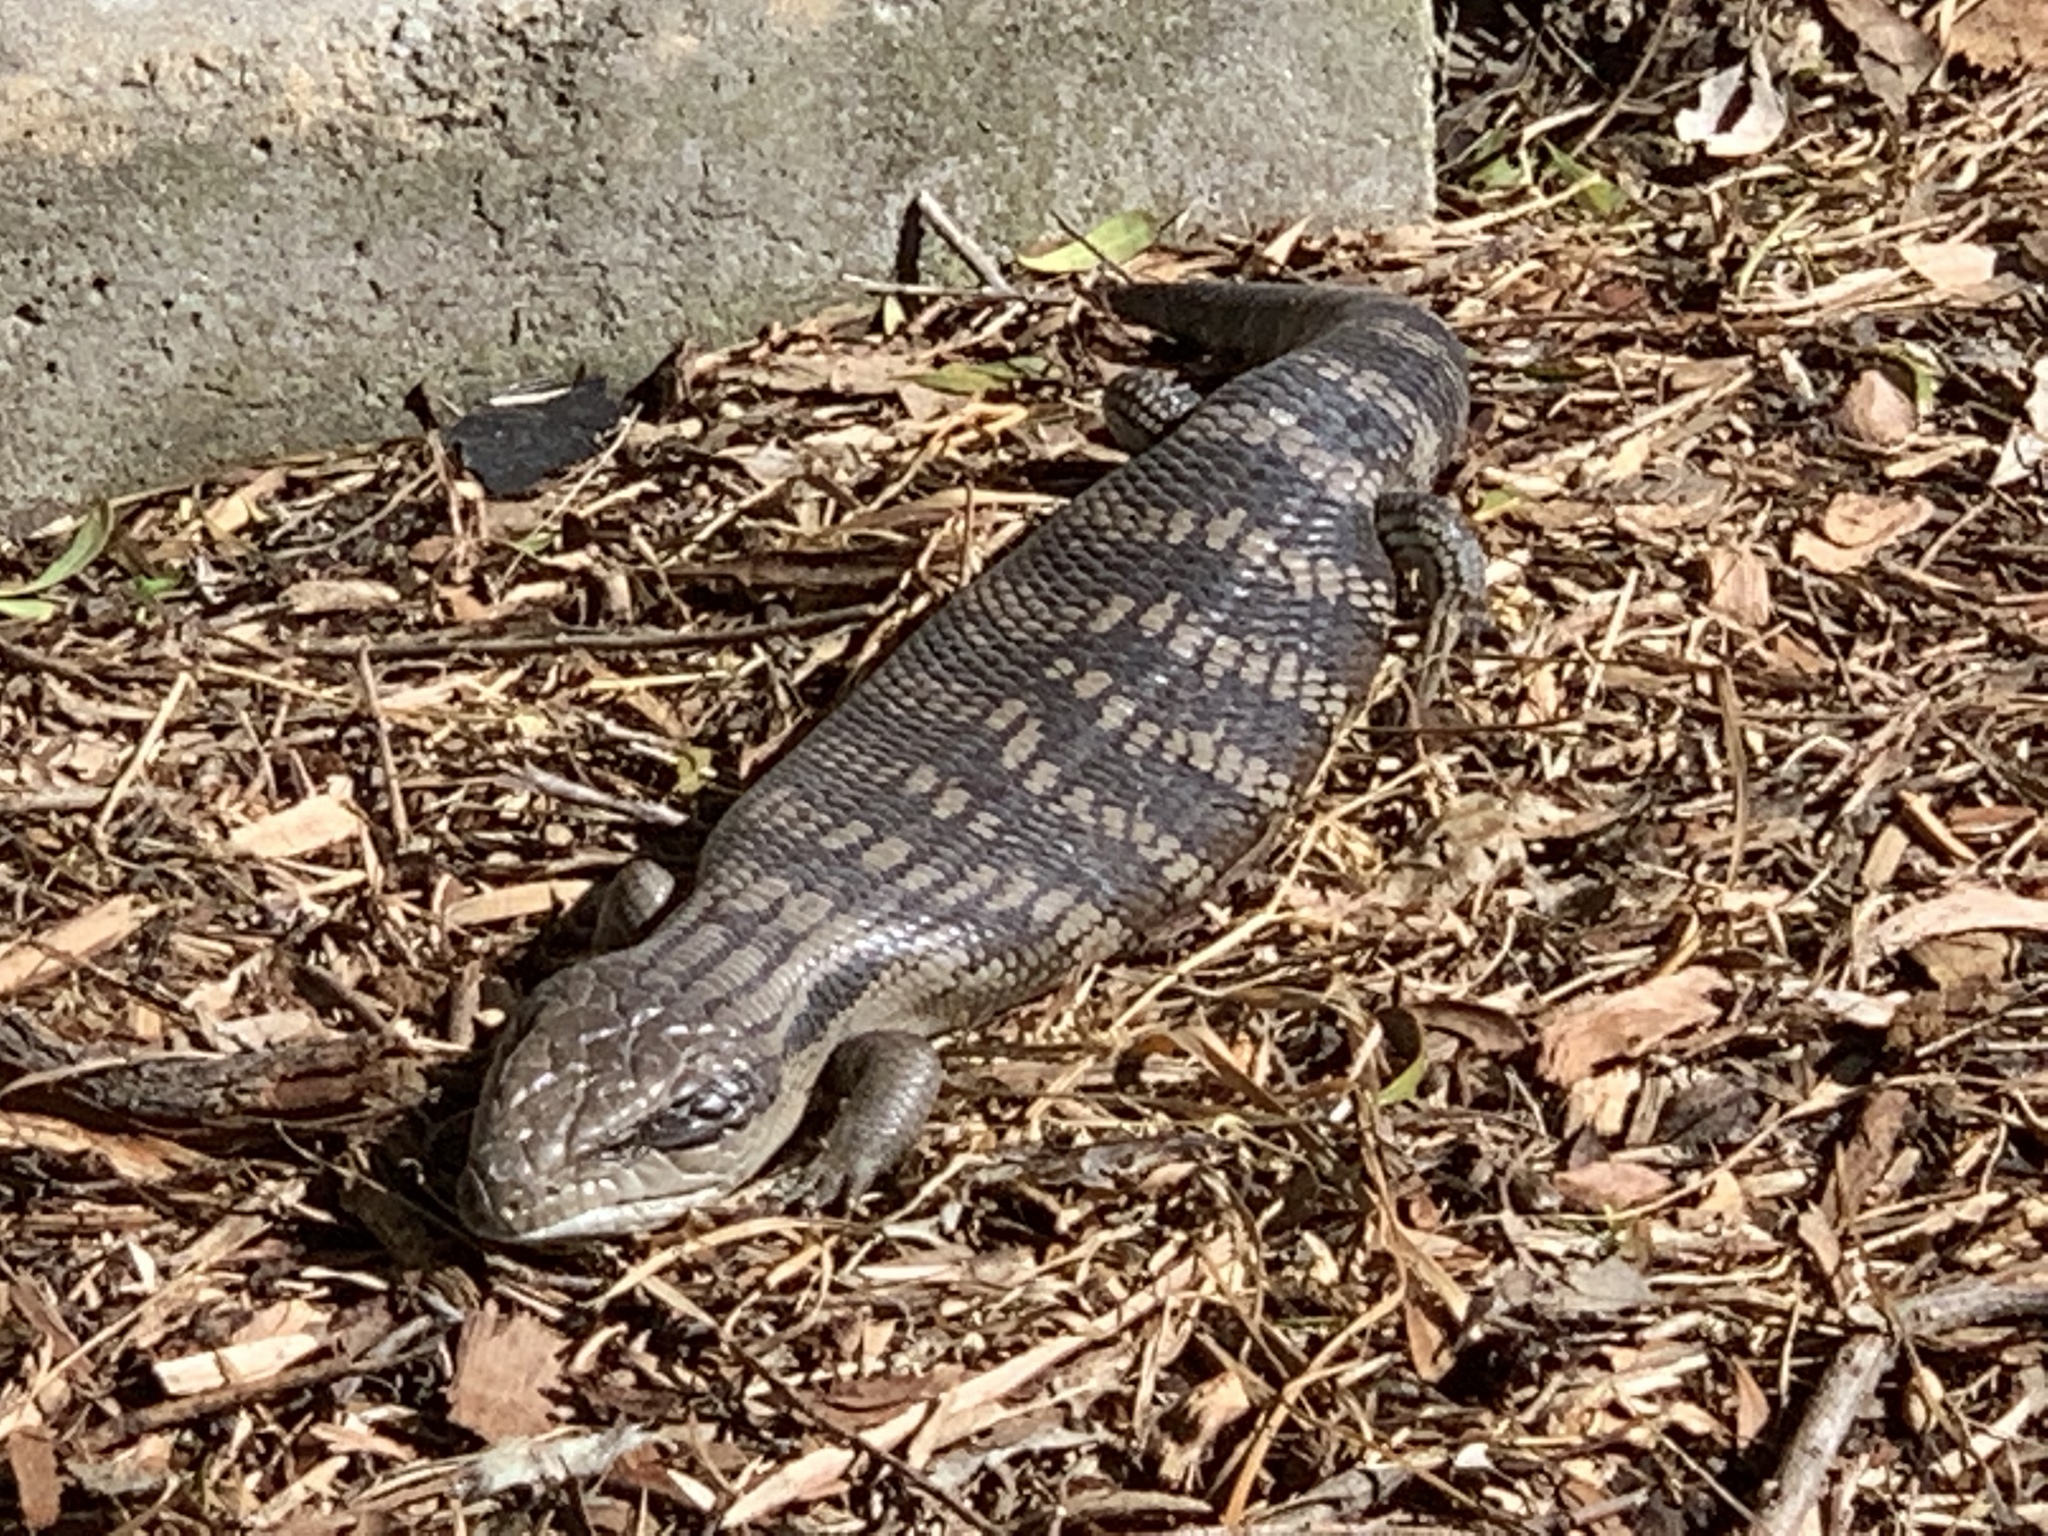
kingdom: Animalia
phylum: Chordata
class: Squamata
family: Scincidae
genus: Tiliqua
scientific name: Tiliqua scincoides
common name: Common bluetongue
